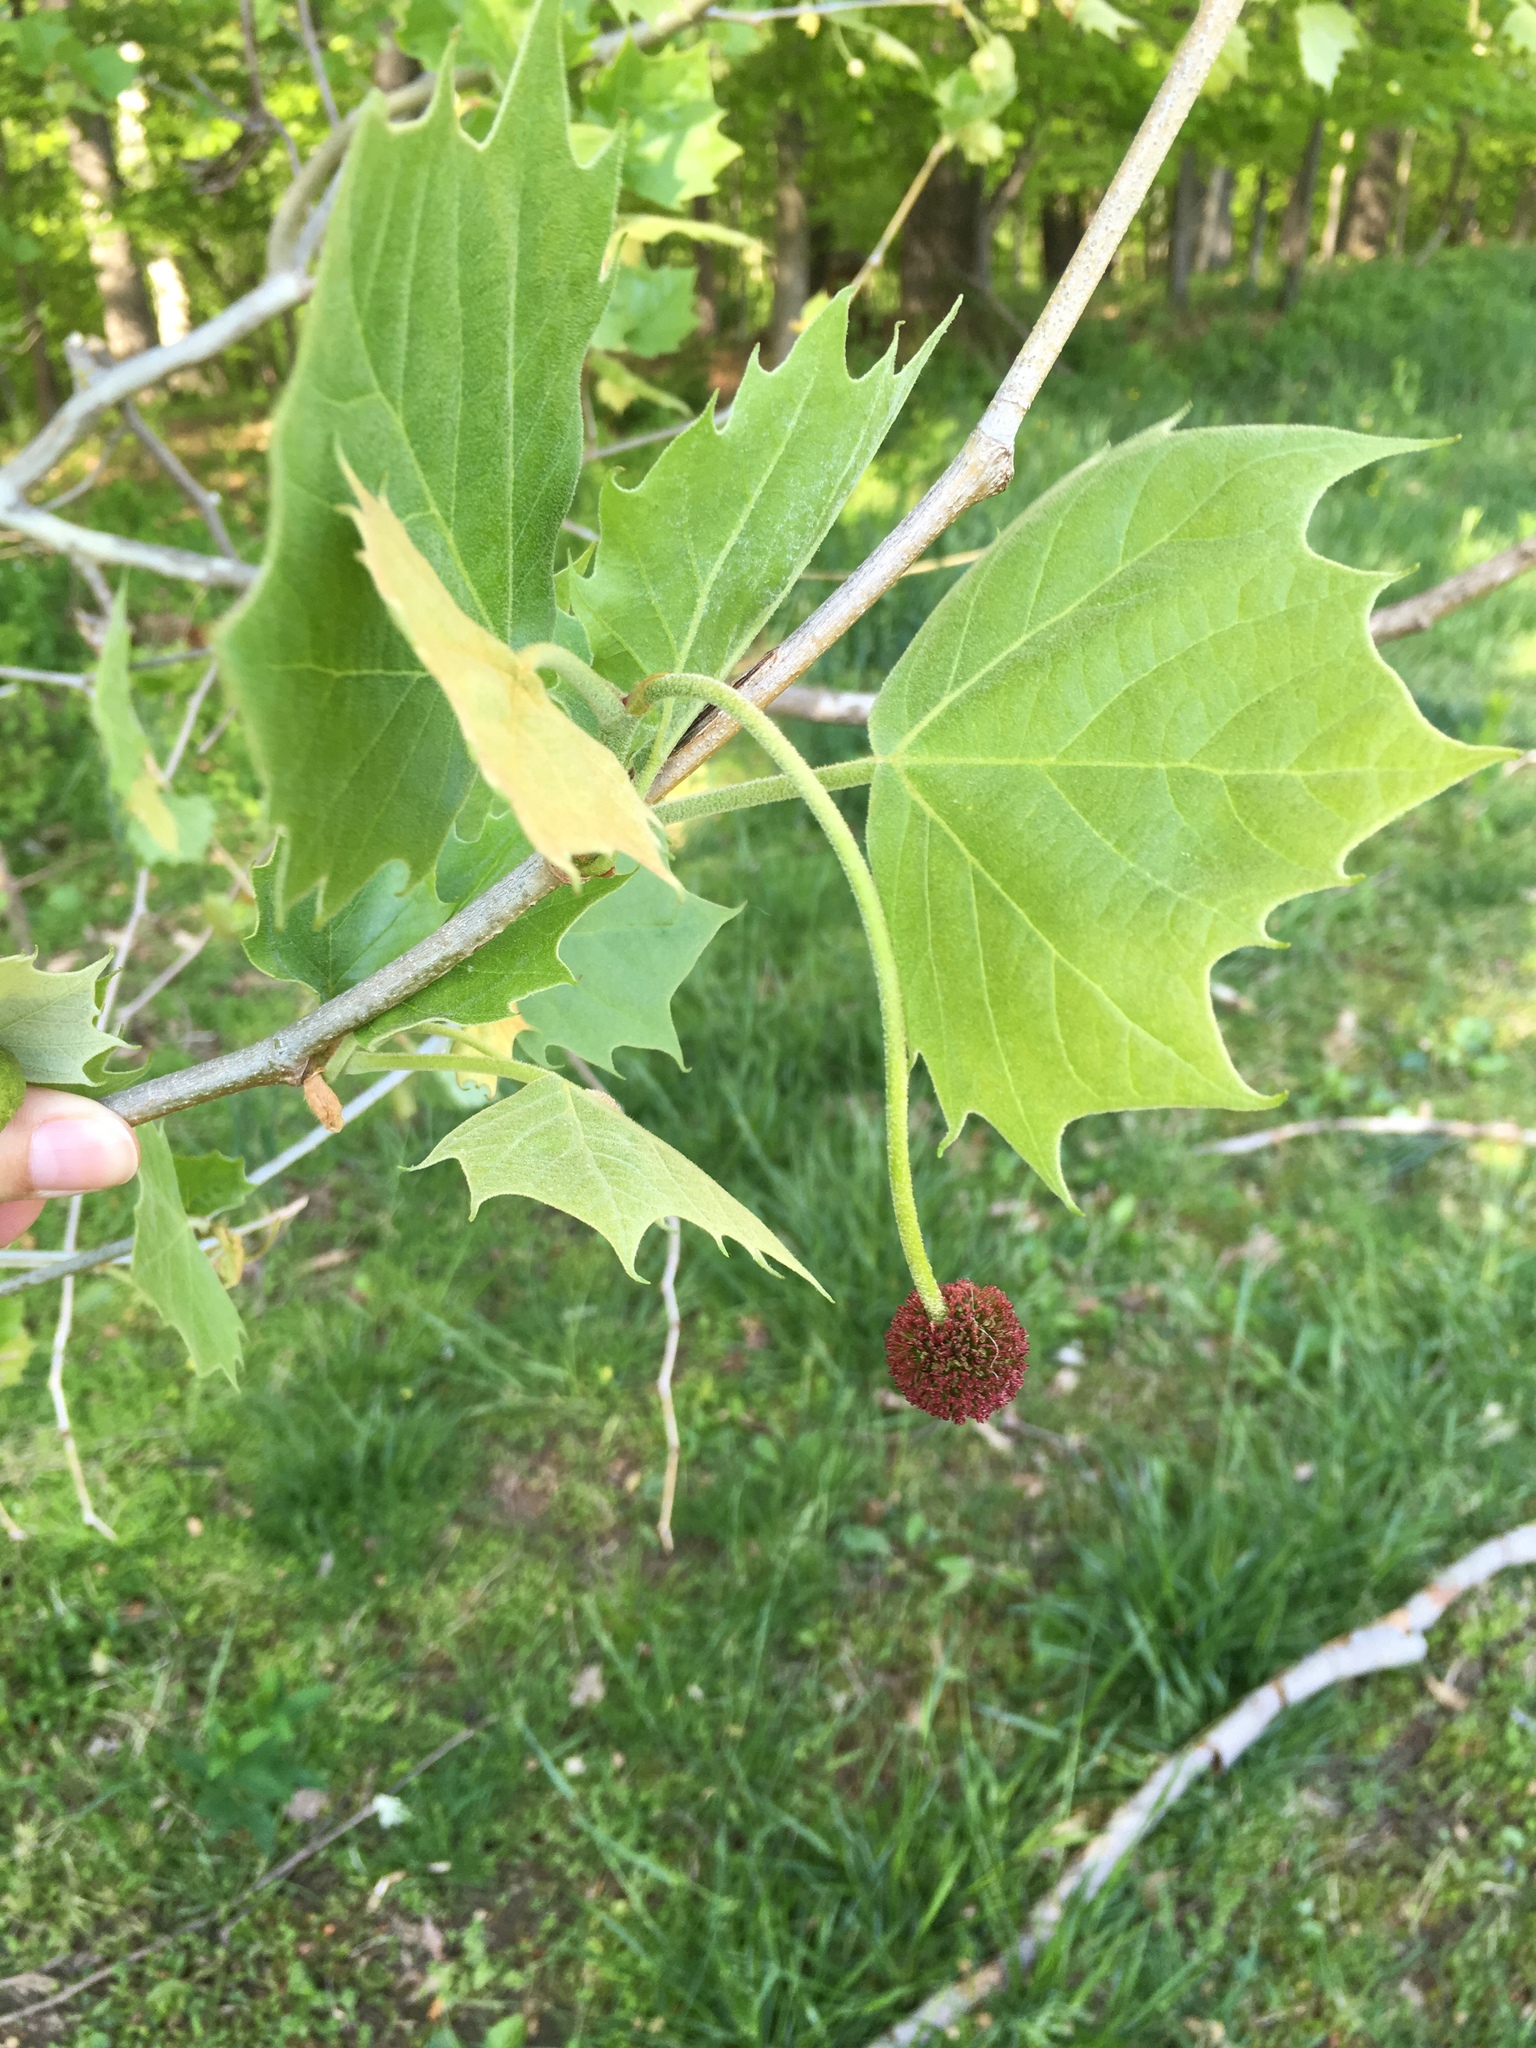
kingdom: Plantae
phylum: Tracheophyta
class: Magnoliopsida
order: Proteales
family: Platanaceae
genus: Platanus
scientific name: Platanus occidentalis
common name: American sycamore
